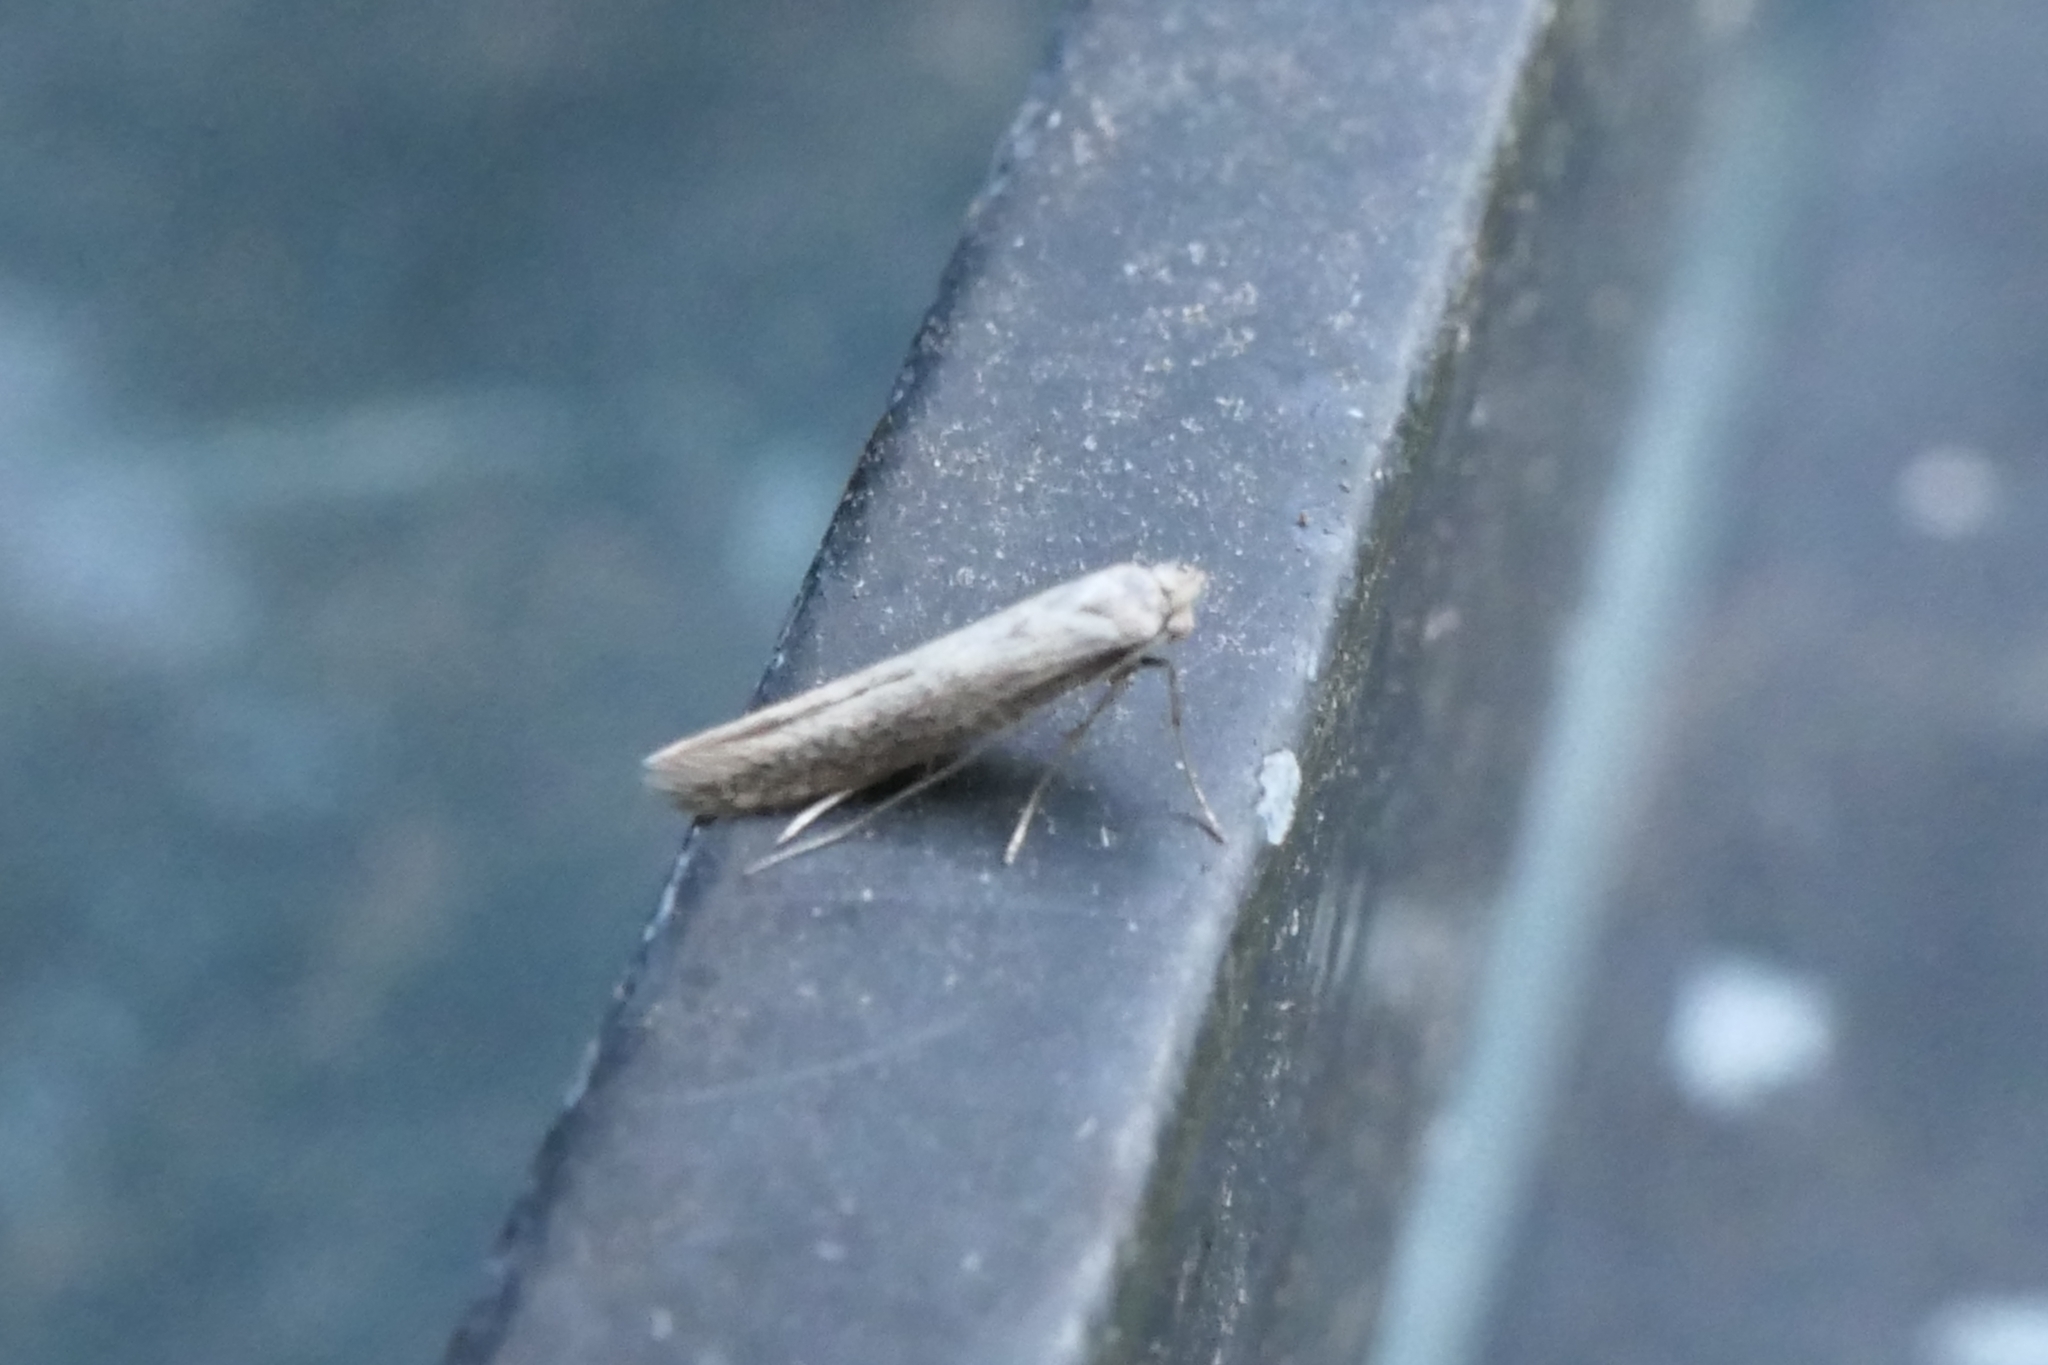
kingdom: Animalia
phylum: Arthropoda
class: Insecta
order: Lepidoptera
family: Bedelliidae
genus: Bedellia
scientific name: Bedellia psamminella
